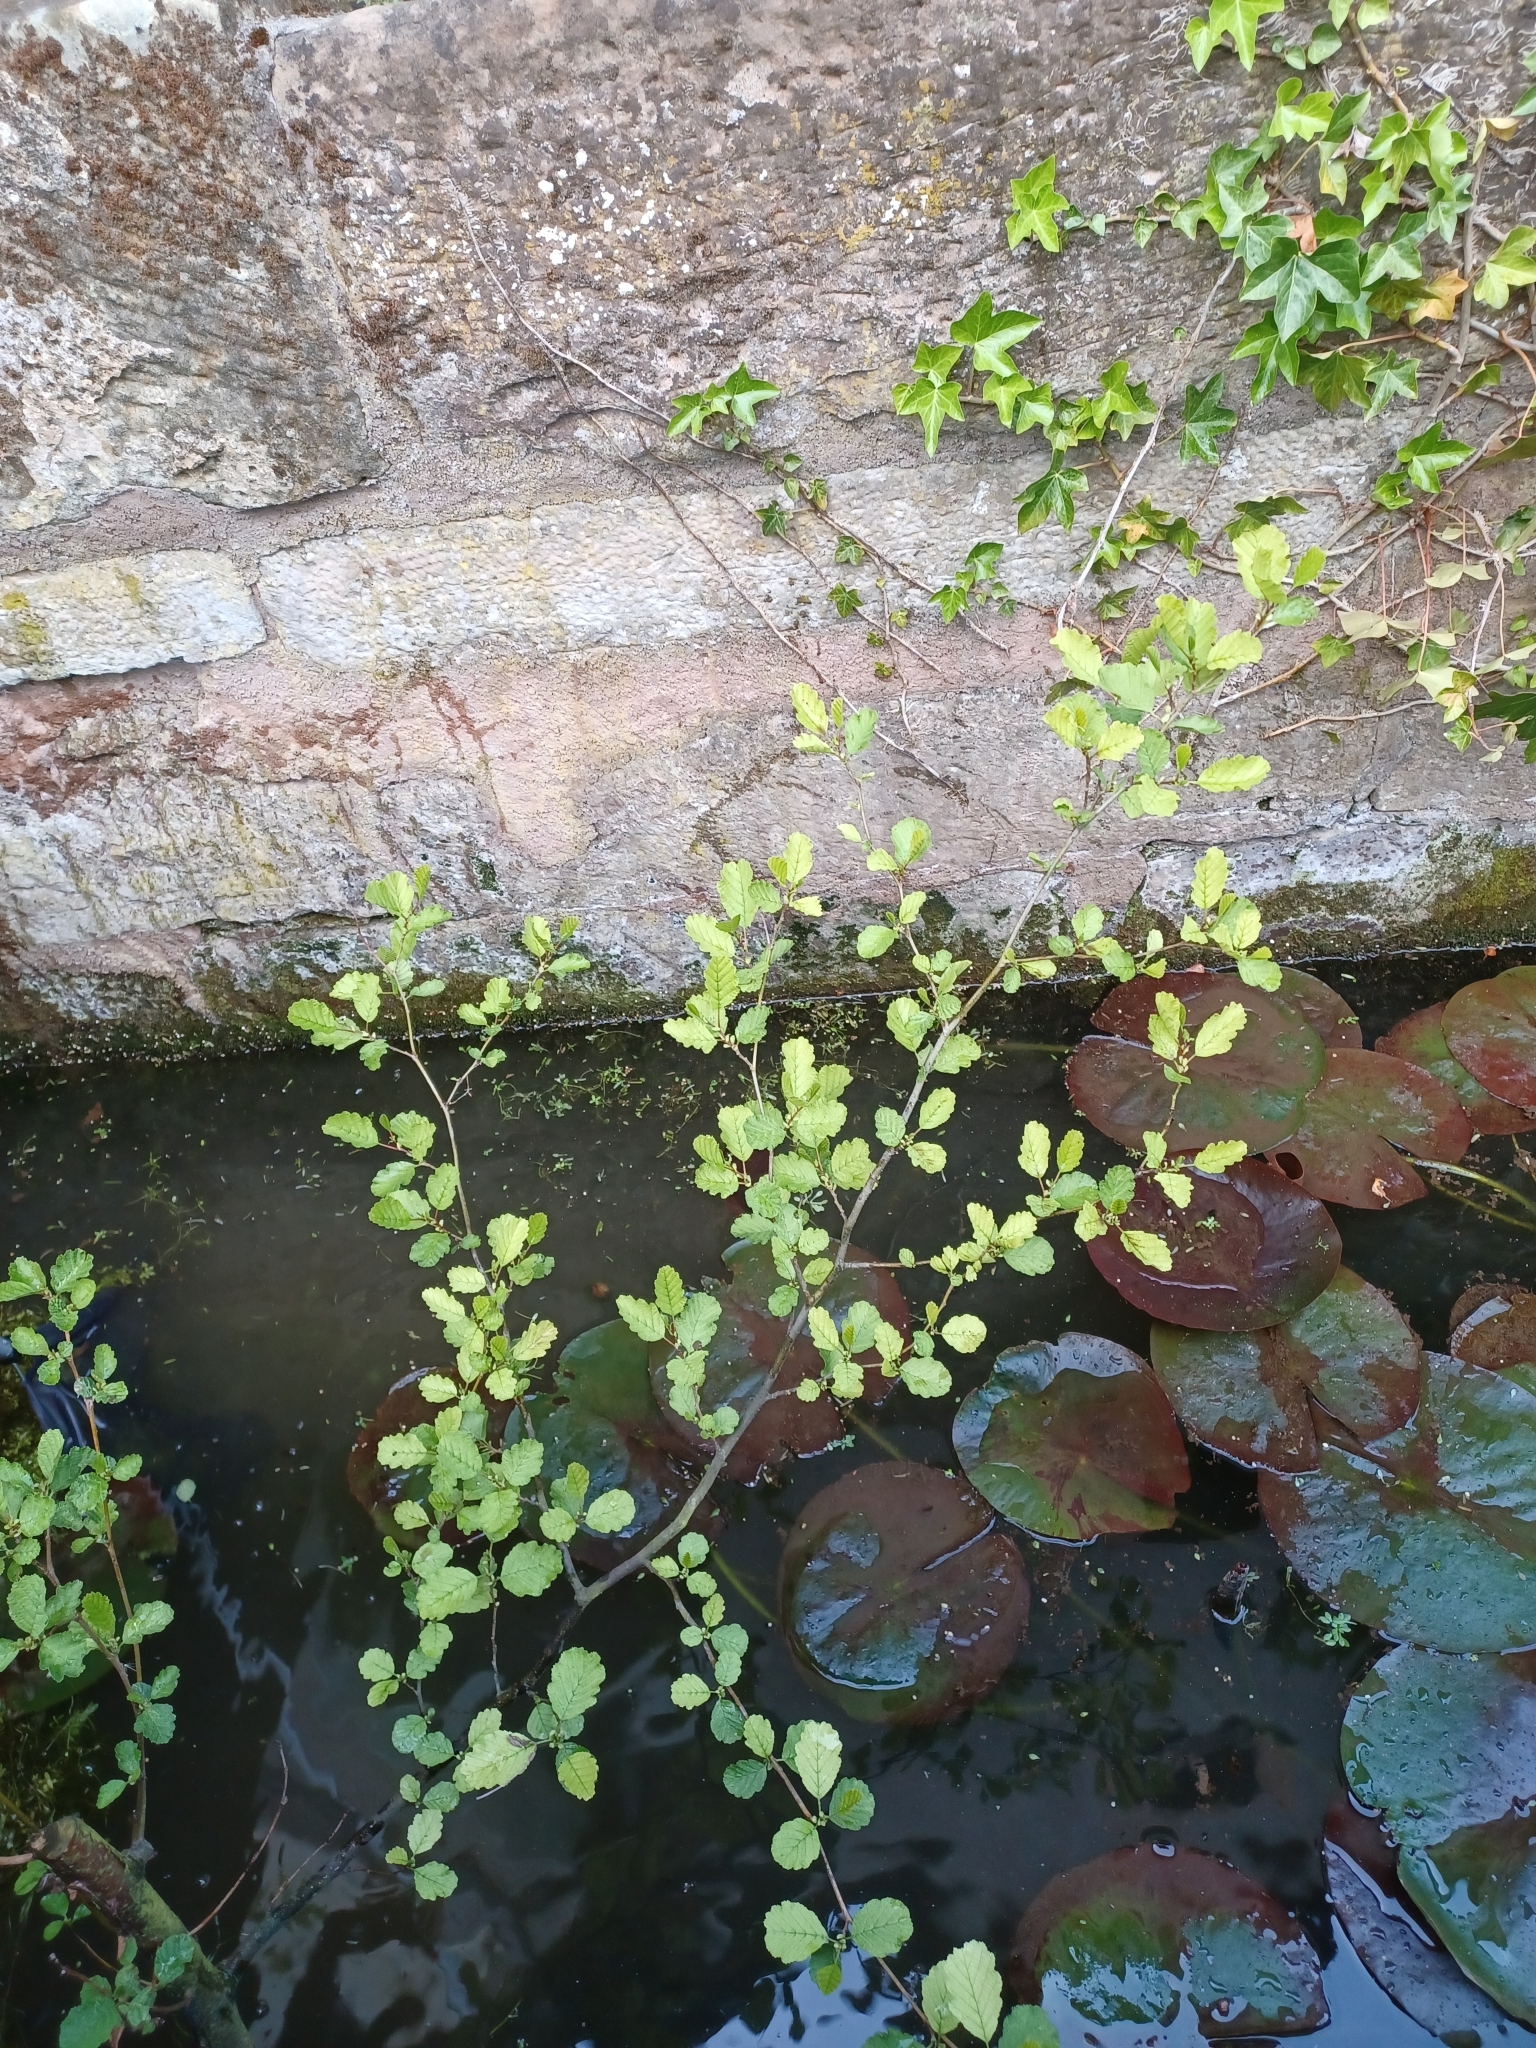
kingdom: Plantae
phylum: Tracheophyta
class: Magnoliopsida
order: Fagales
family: Betulaceae
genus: Alnus
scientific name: Alnus glutinosa
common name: Black alder
